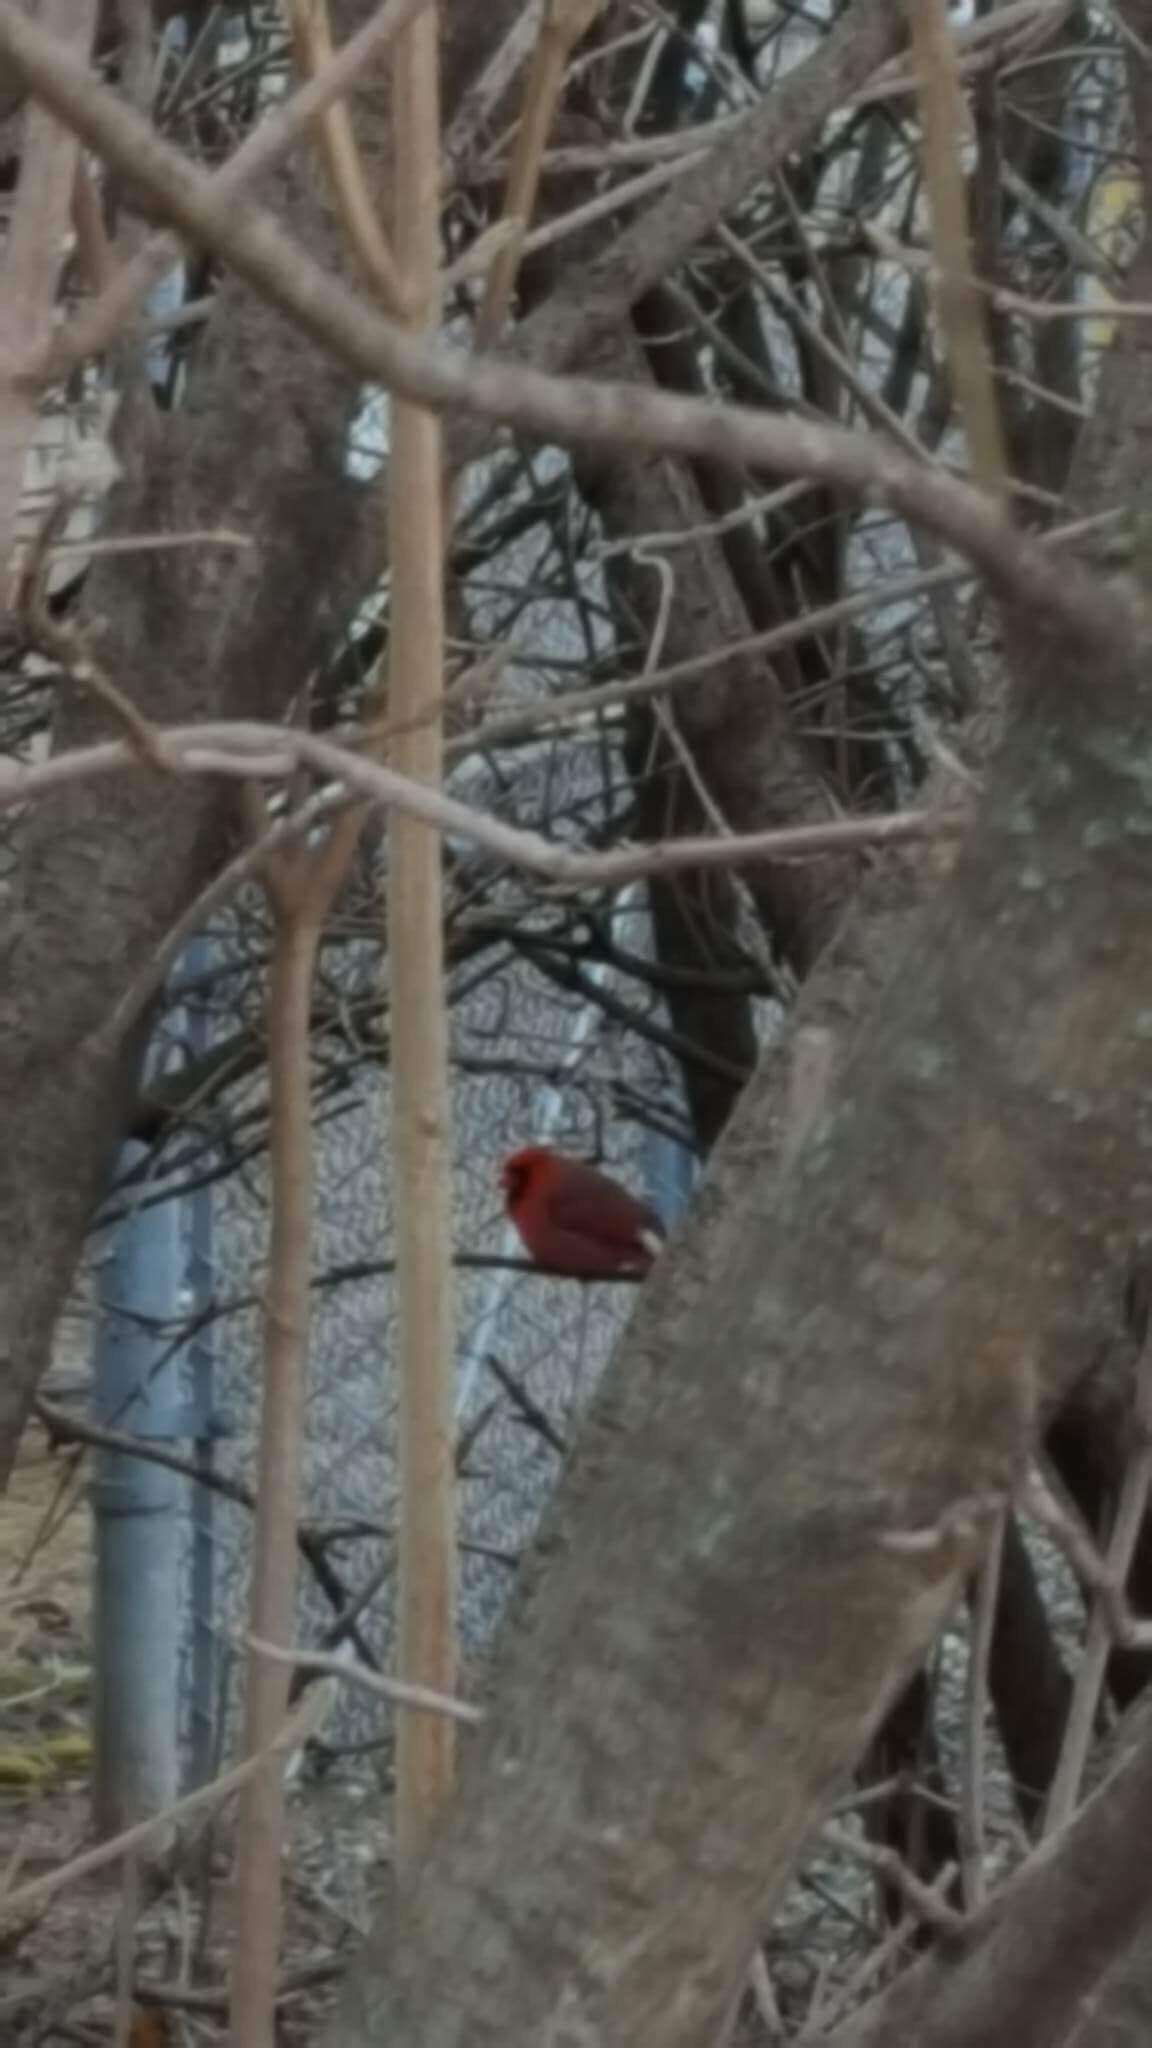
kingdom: Animalia
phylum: Chordata
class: Aves
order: Passeriformes
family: Cardinalidae
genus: Cardinalis
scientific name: Cardinalis cardinalis
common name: Northern cardinal
